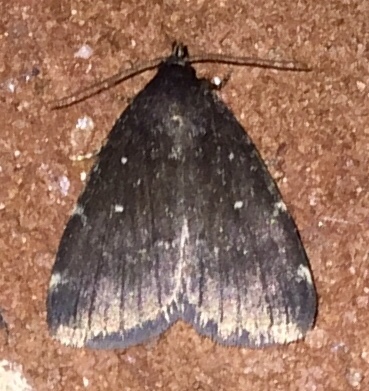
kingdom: Animalia
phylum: Arthropoda
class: Insecta
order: Lepidoptera
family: Erebidae
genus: Idia
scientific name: Idia julia
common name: Julia's idia moth
